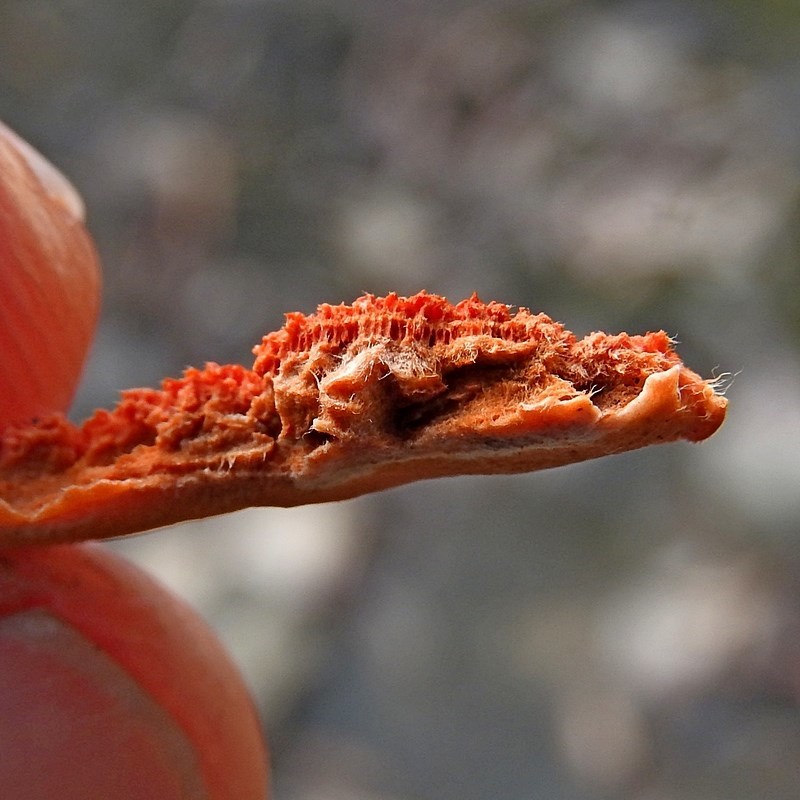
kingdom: Fungi
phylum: Basidiomycota
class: Agaricomycetes
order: Polyporales
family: Polyporaceae
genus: Trametes
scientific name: Trametes coccinea
